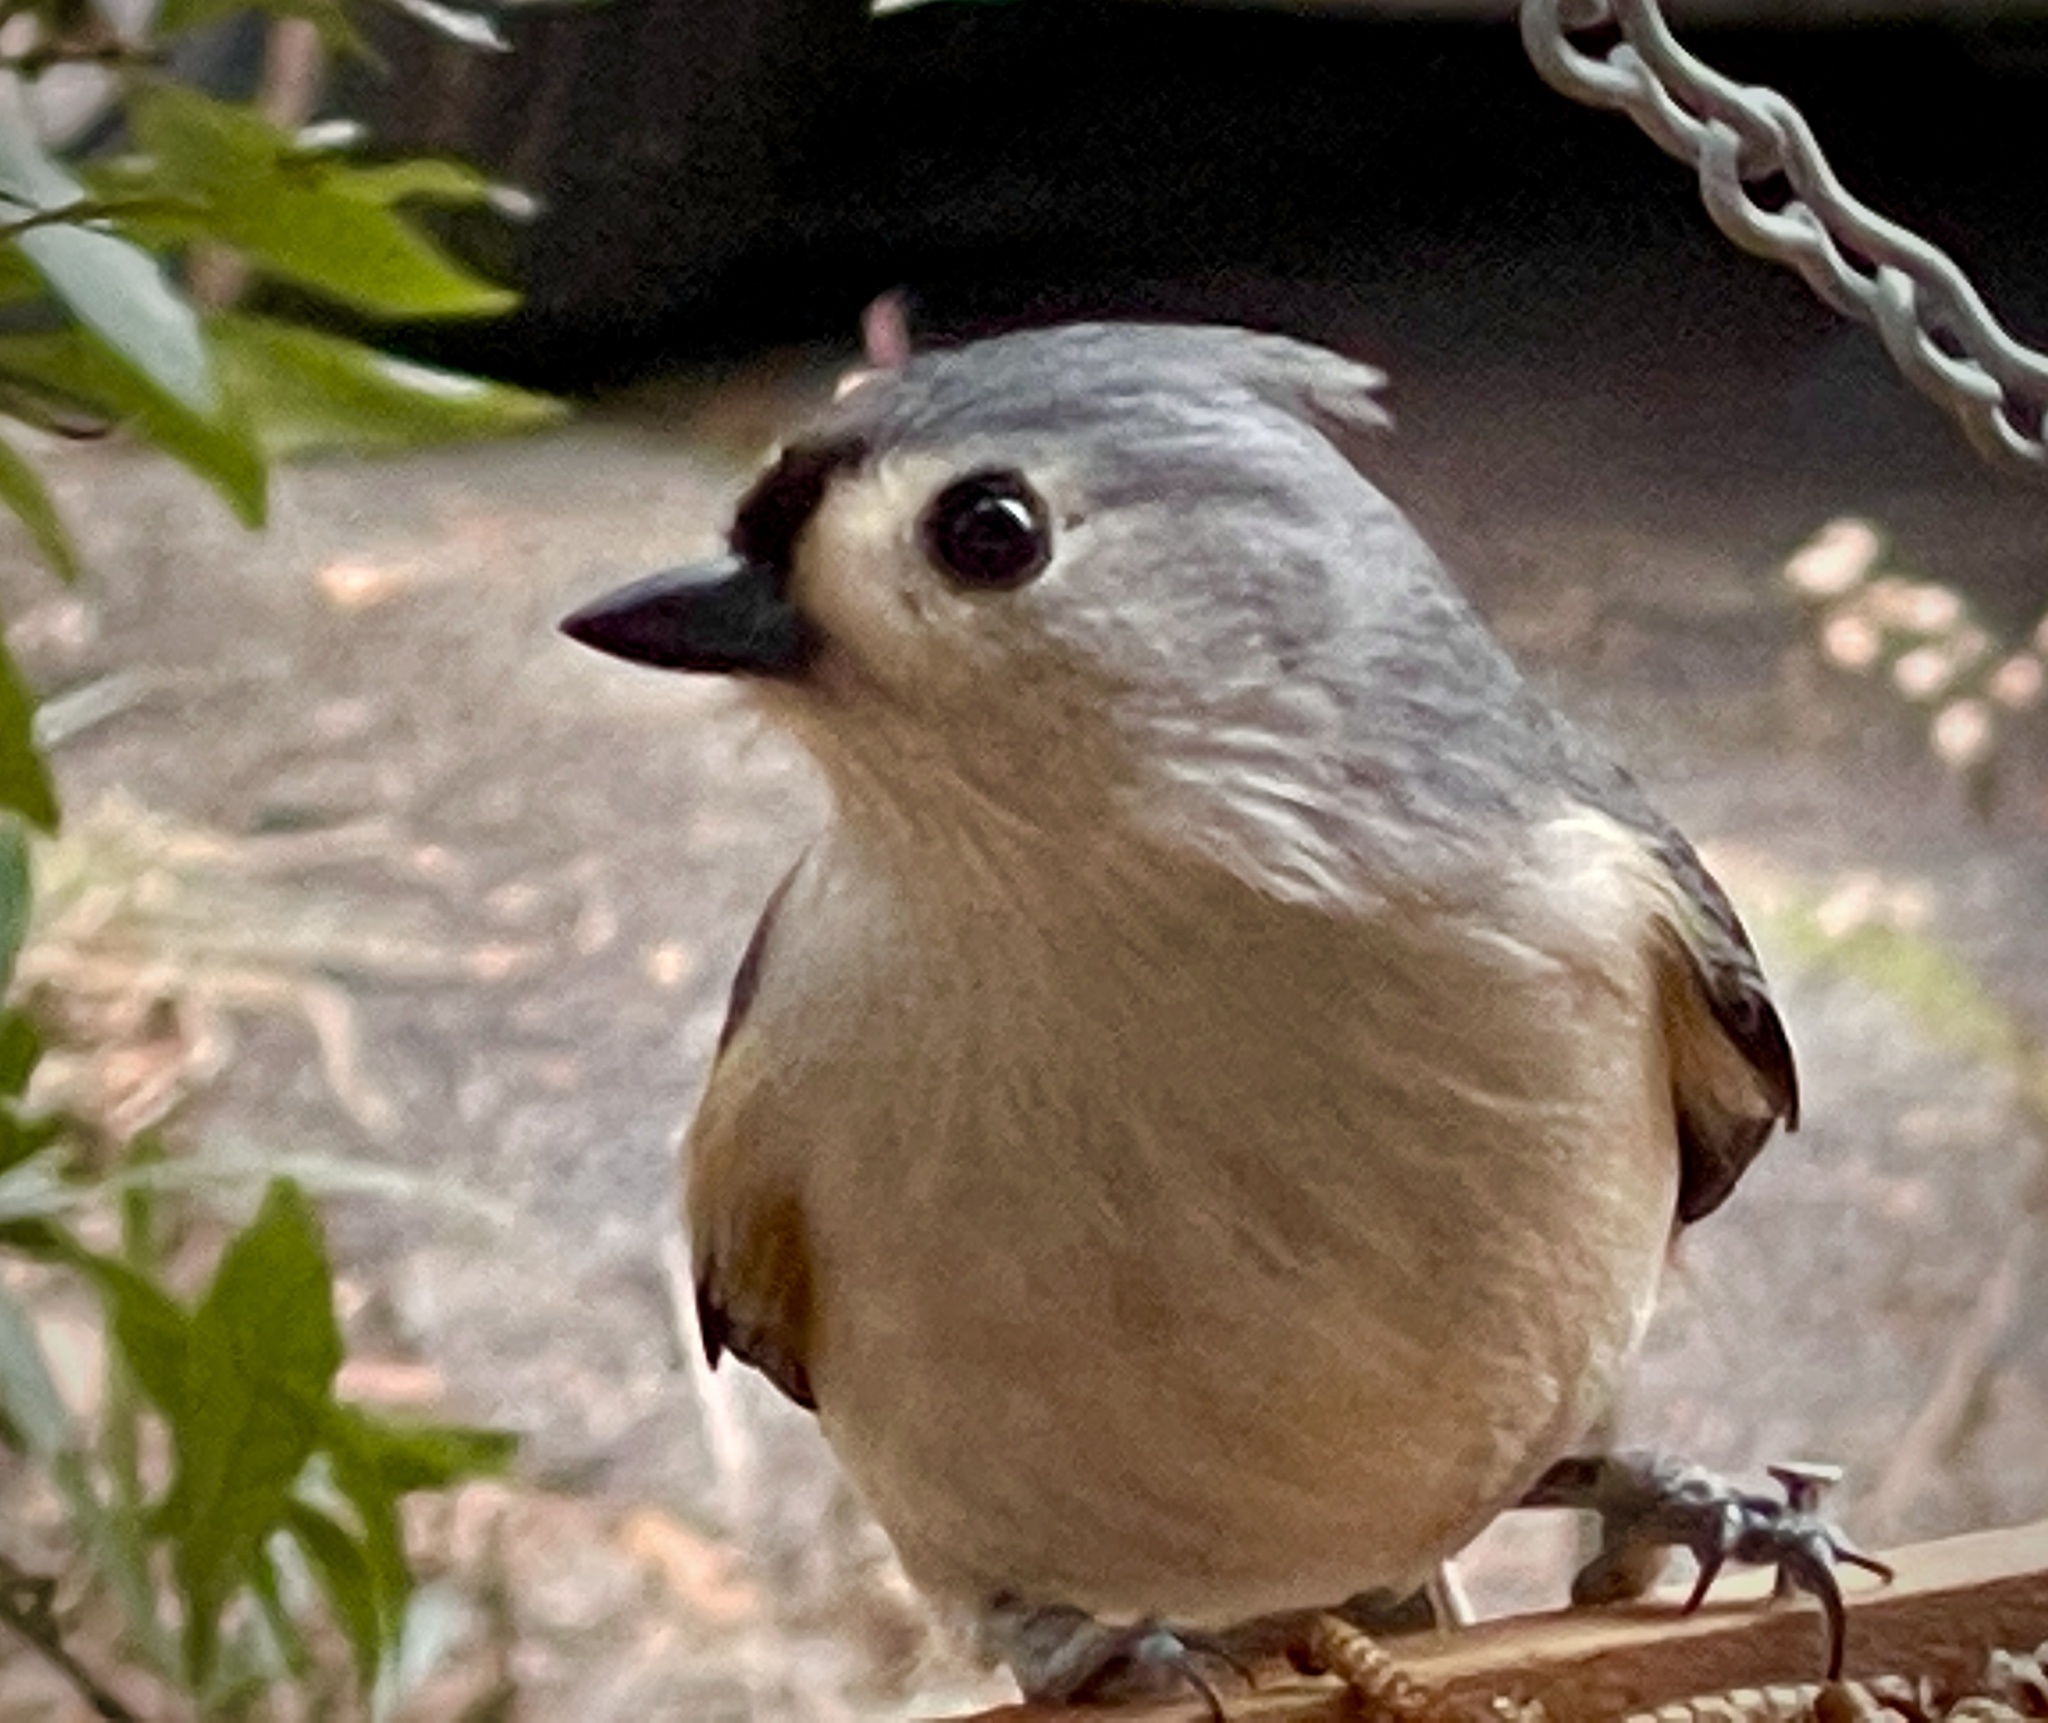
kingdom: Animalia
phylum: Chordata
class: Aves
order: Passeriformes
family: Paridae
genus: Baeolophus
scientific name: Baeolophus bicolor
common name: Tufted titmouse
